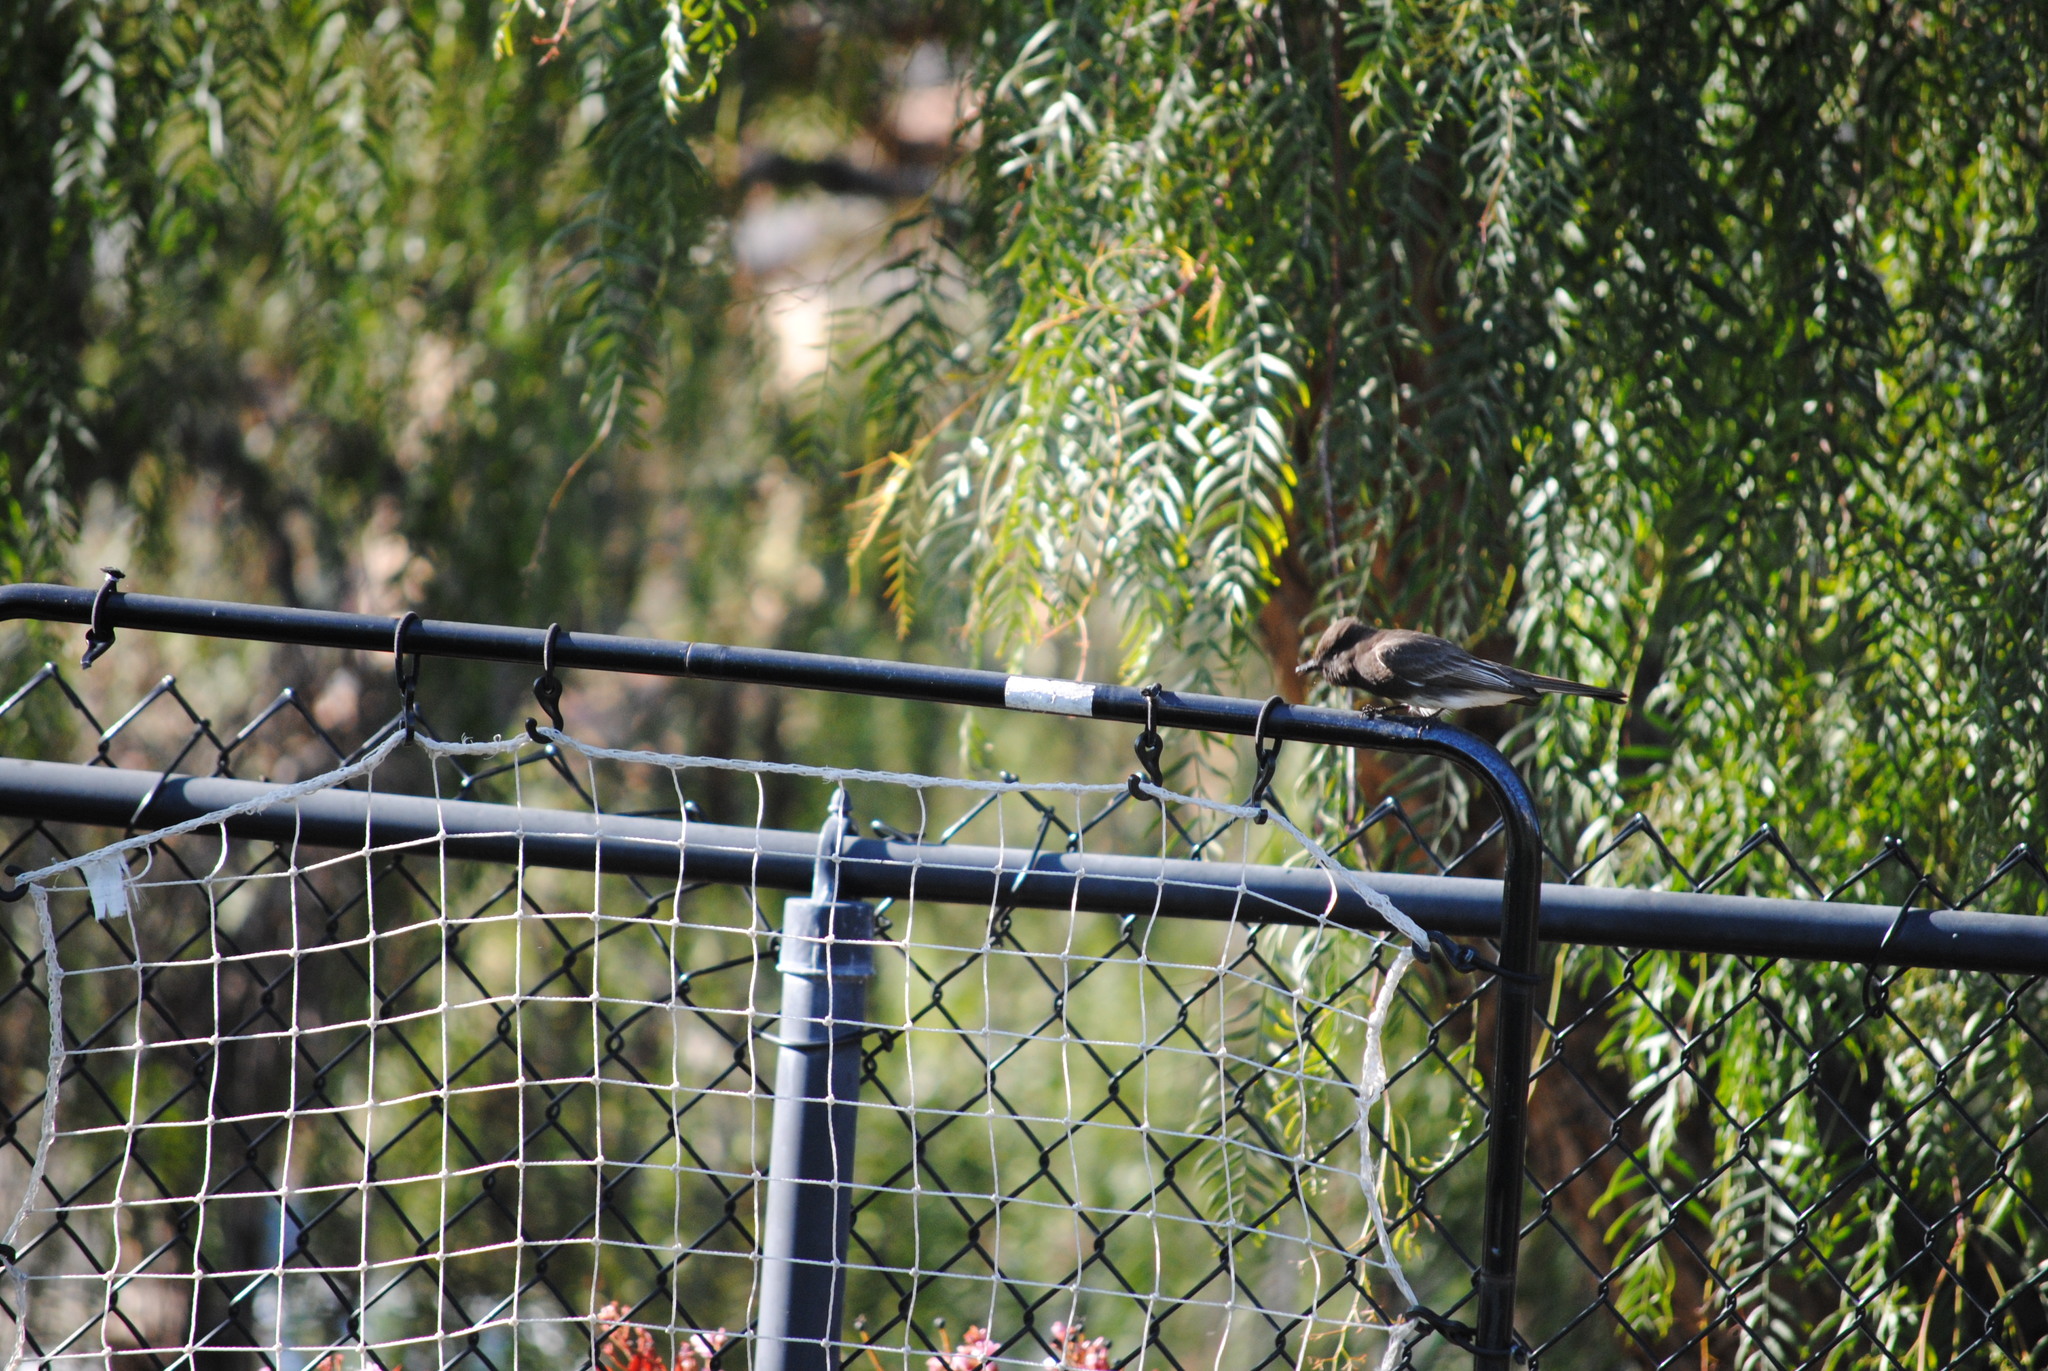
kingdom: Animalia
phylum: Chordata
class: Aves
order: Passeriformes
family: Tyrannidae
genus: Sayornis
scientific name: Sayornis nigricans
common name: Black phoebe
